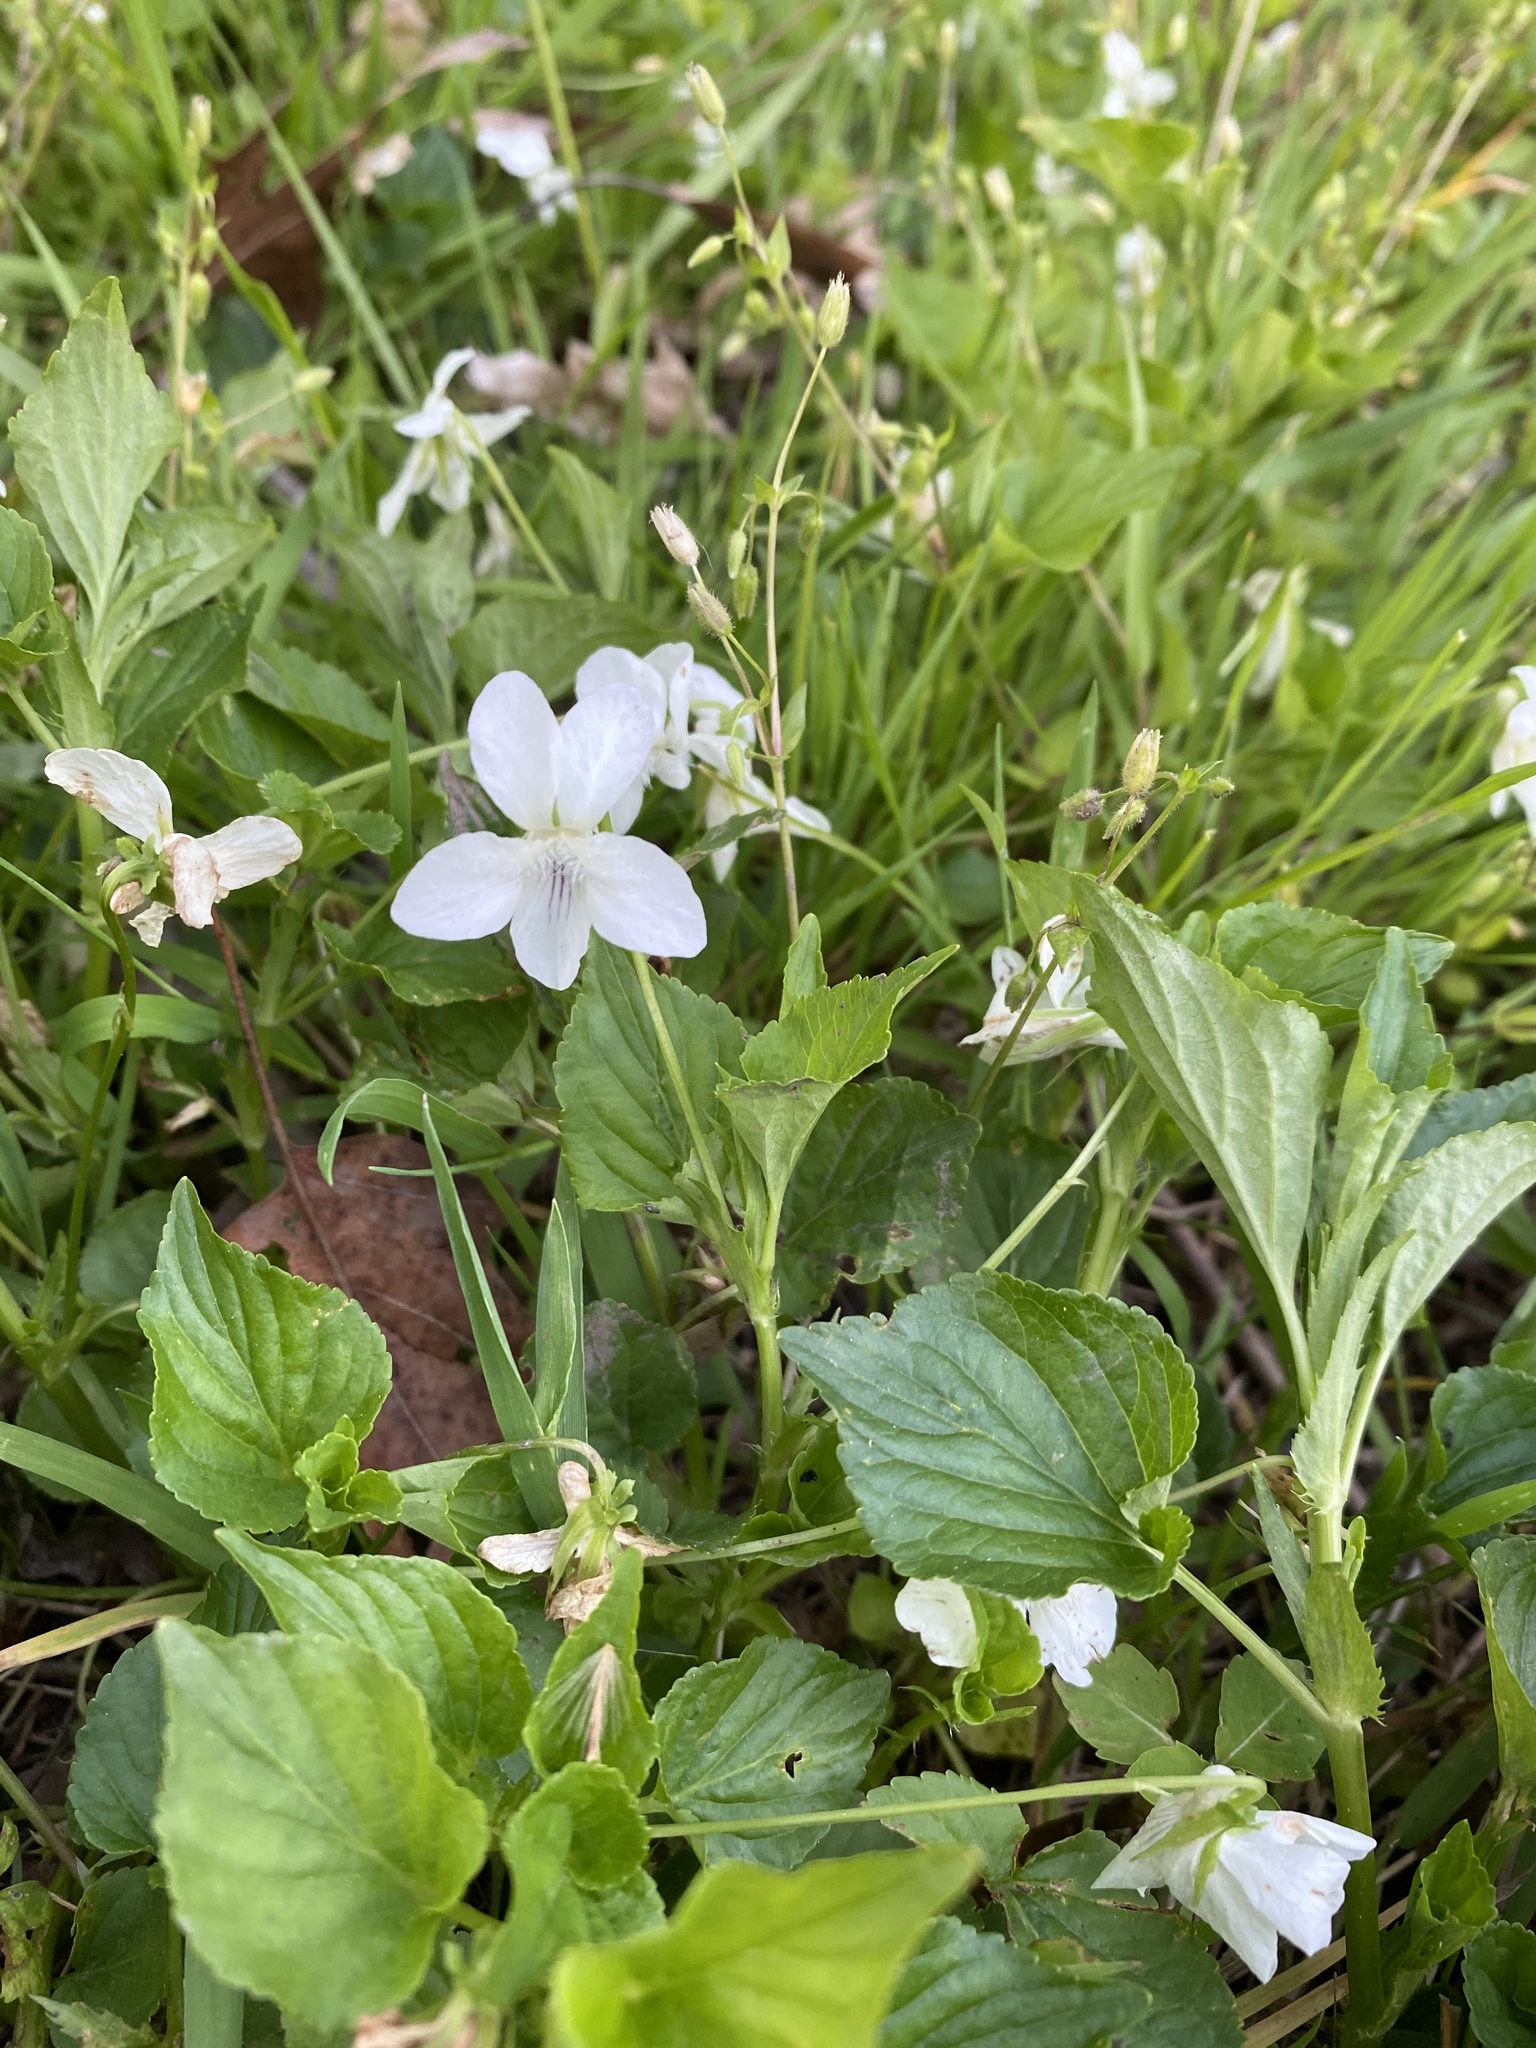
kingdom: Plantae
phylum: Tracheophyta
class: Magnoliopsida
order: Malpighiales
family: Violaceae
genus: Viola
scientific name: Viola striata
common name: Cream violet
